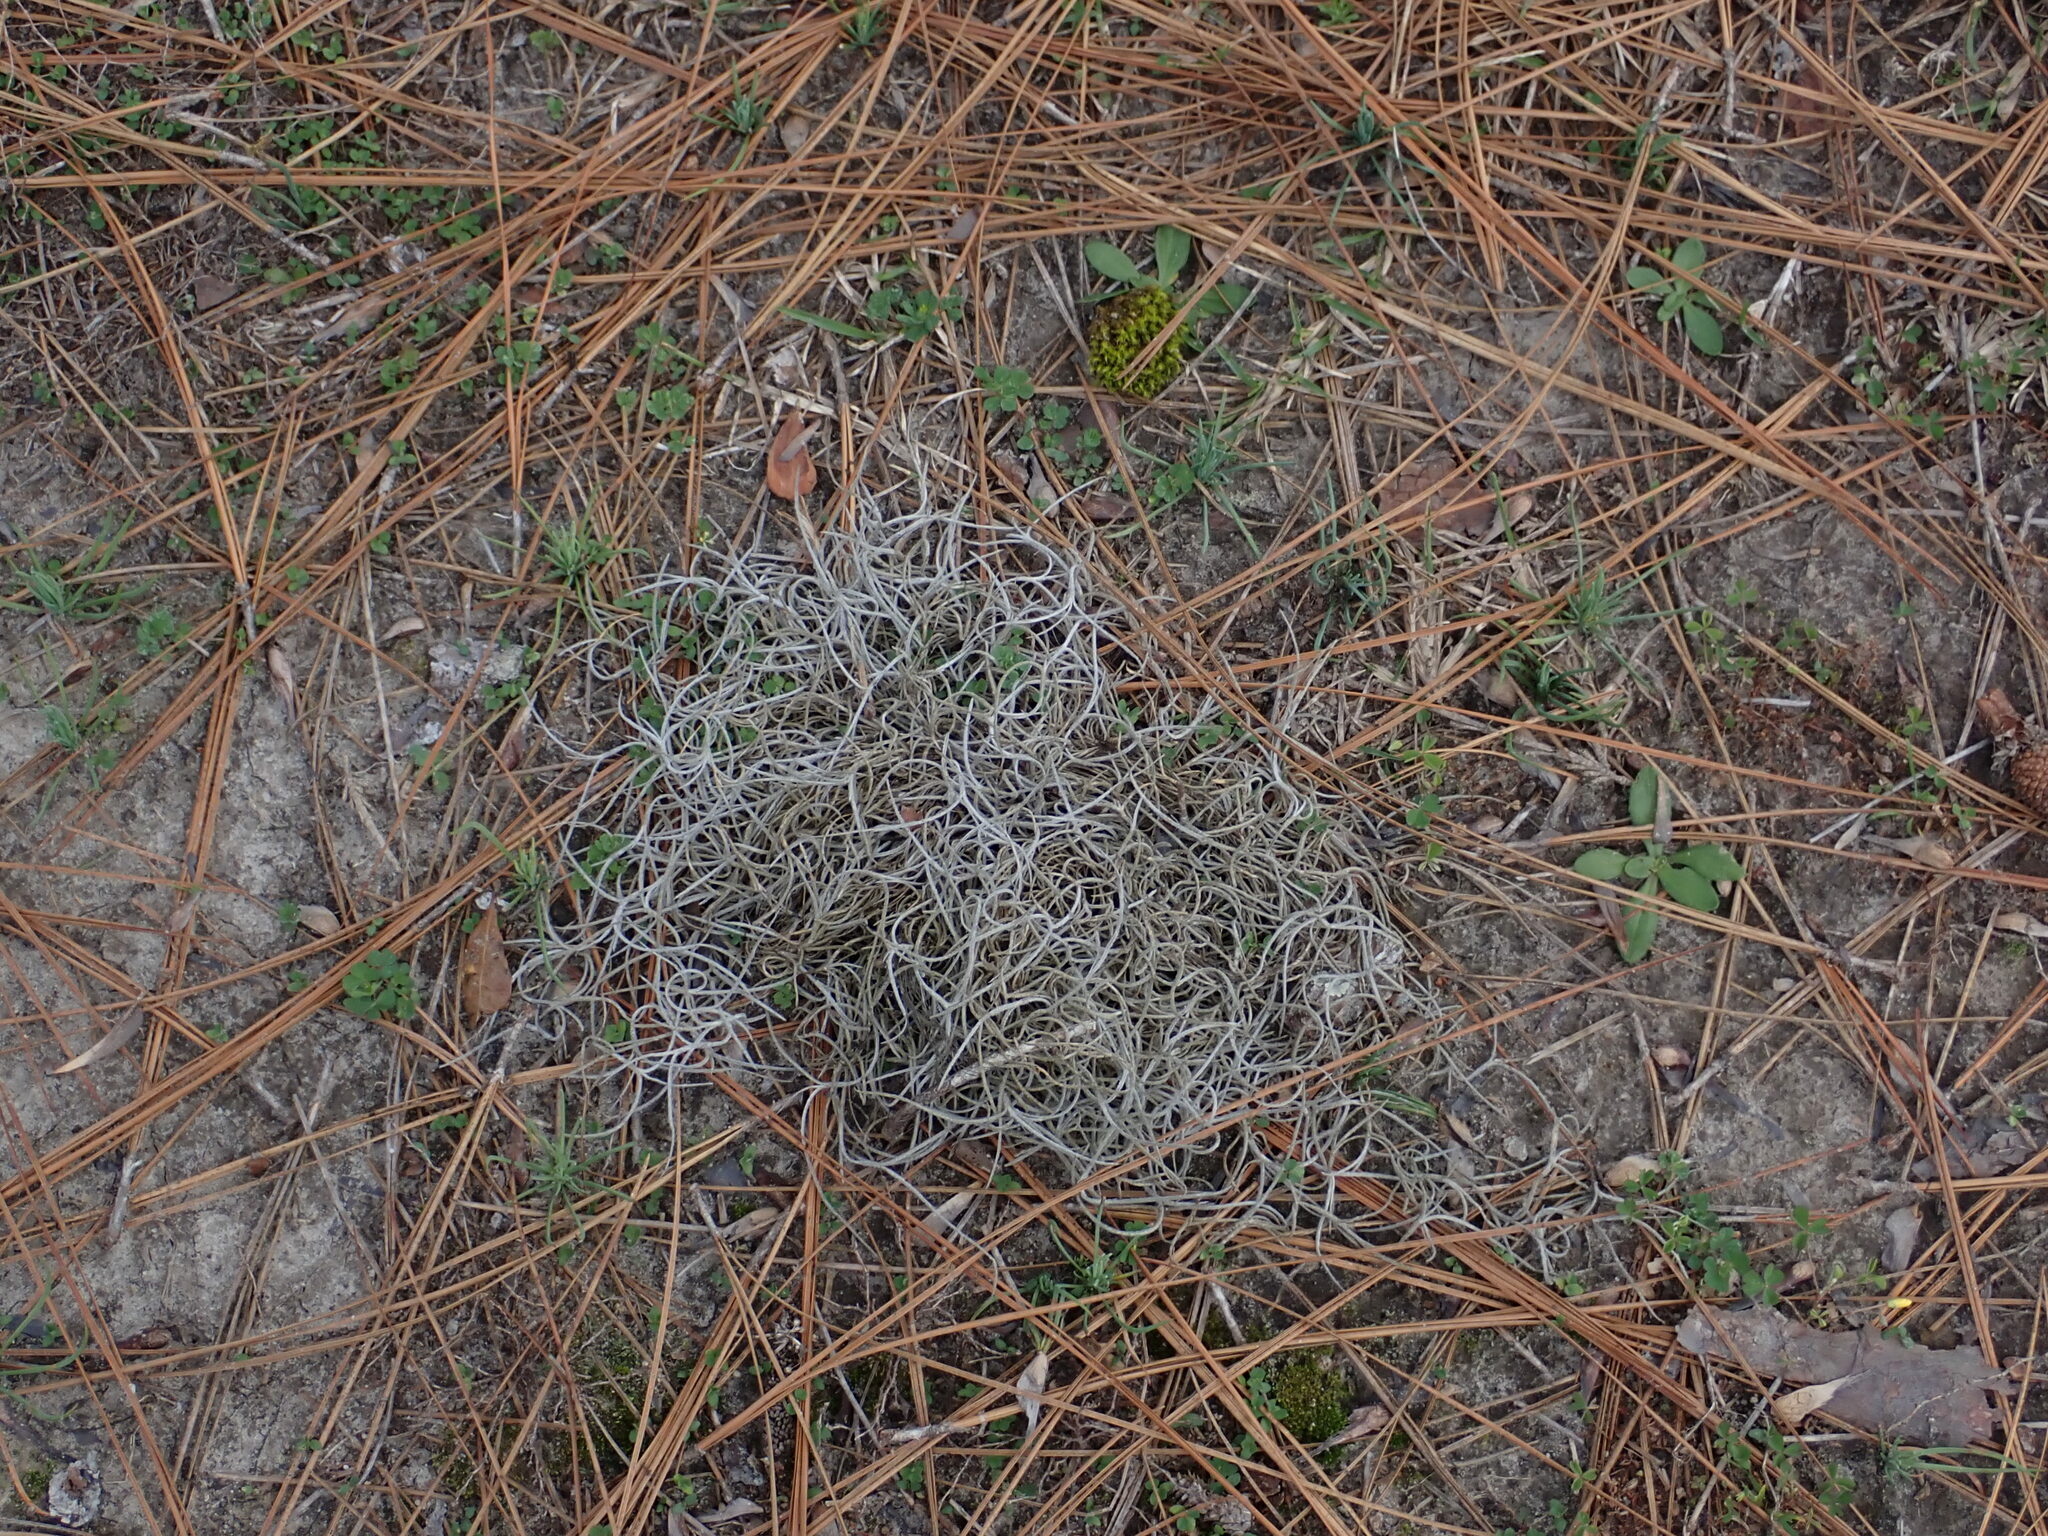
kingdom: Plantae
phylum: Tracheophyta
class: Liliopsida
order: Poales
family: Bromeliaceae
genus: Tillandsia
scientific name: Tillandsia usneoides
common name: Spanish moss
